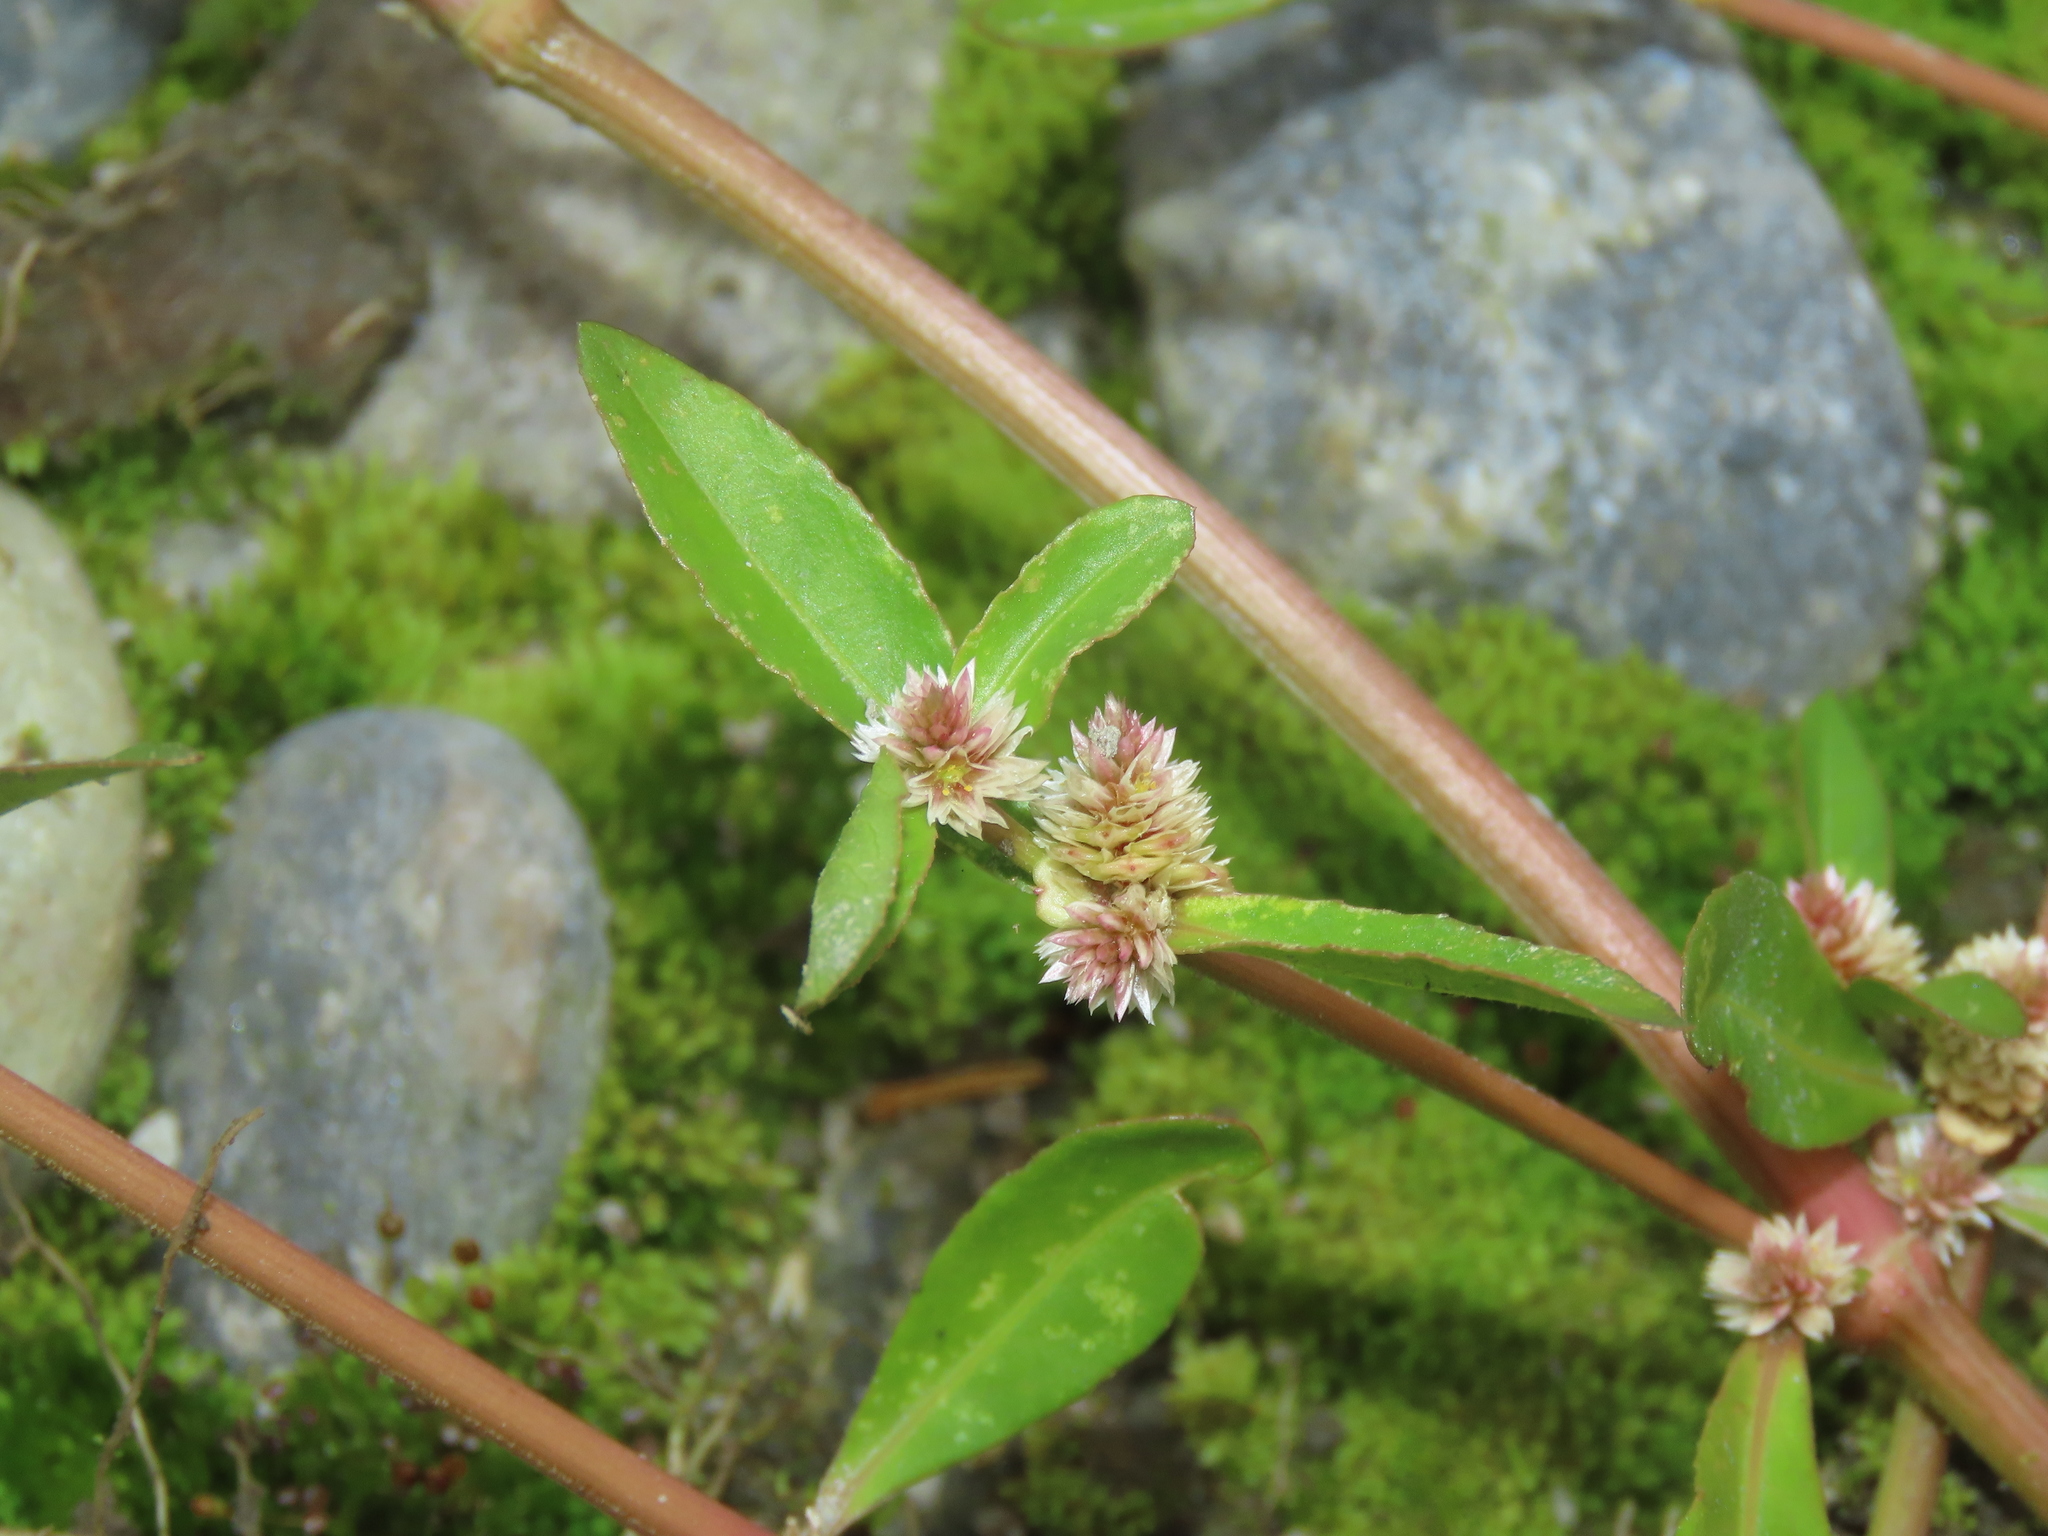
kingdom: Plantae
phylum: Tracheophyta
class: Magnoliopsida
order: Caryophyllales
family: Amaranthaceae
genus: Alternanthera
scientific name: Alternanthera sessilis
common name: Sessile joyweed
